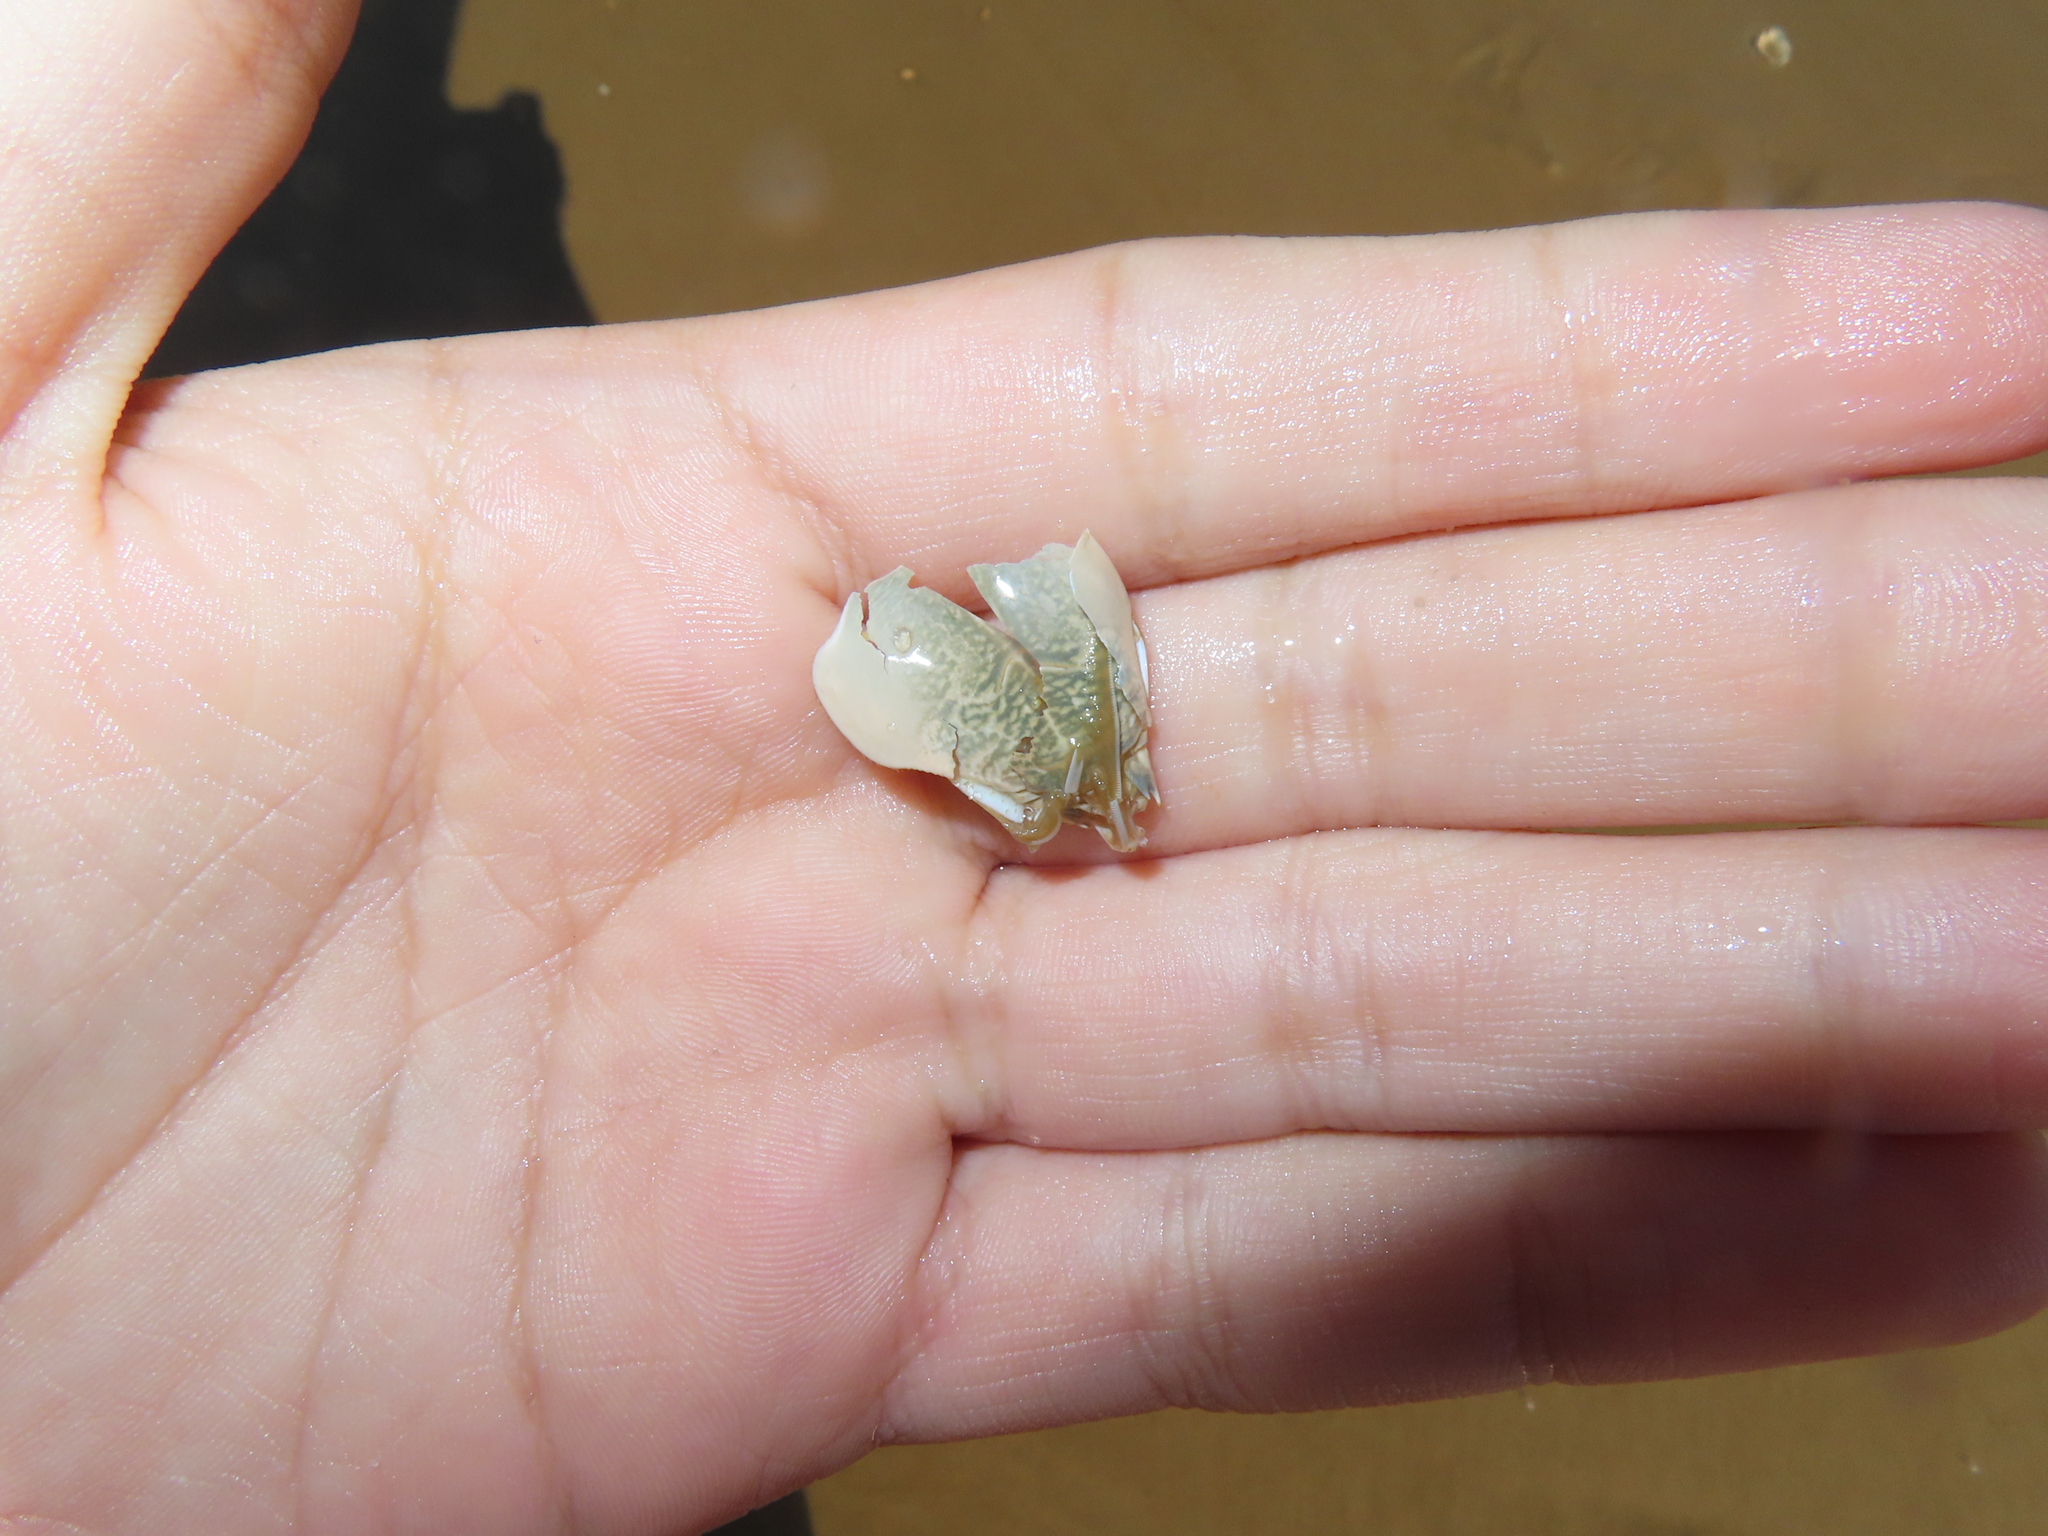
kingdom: Animalia
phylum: Arthropoda
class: Malacostraca
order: Decapoda
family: Hippidae
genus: Emerita
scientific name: Emerita talpoida
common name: Atlantic sand crab
